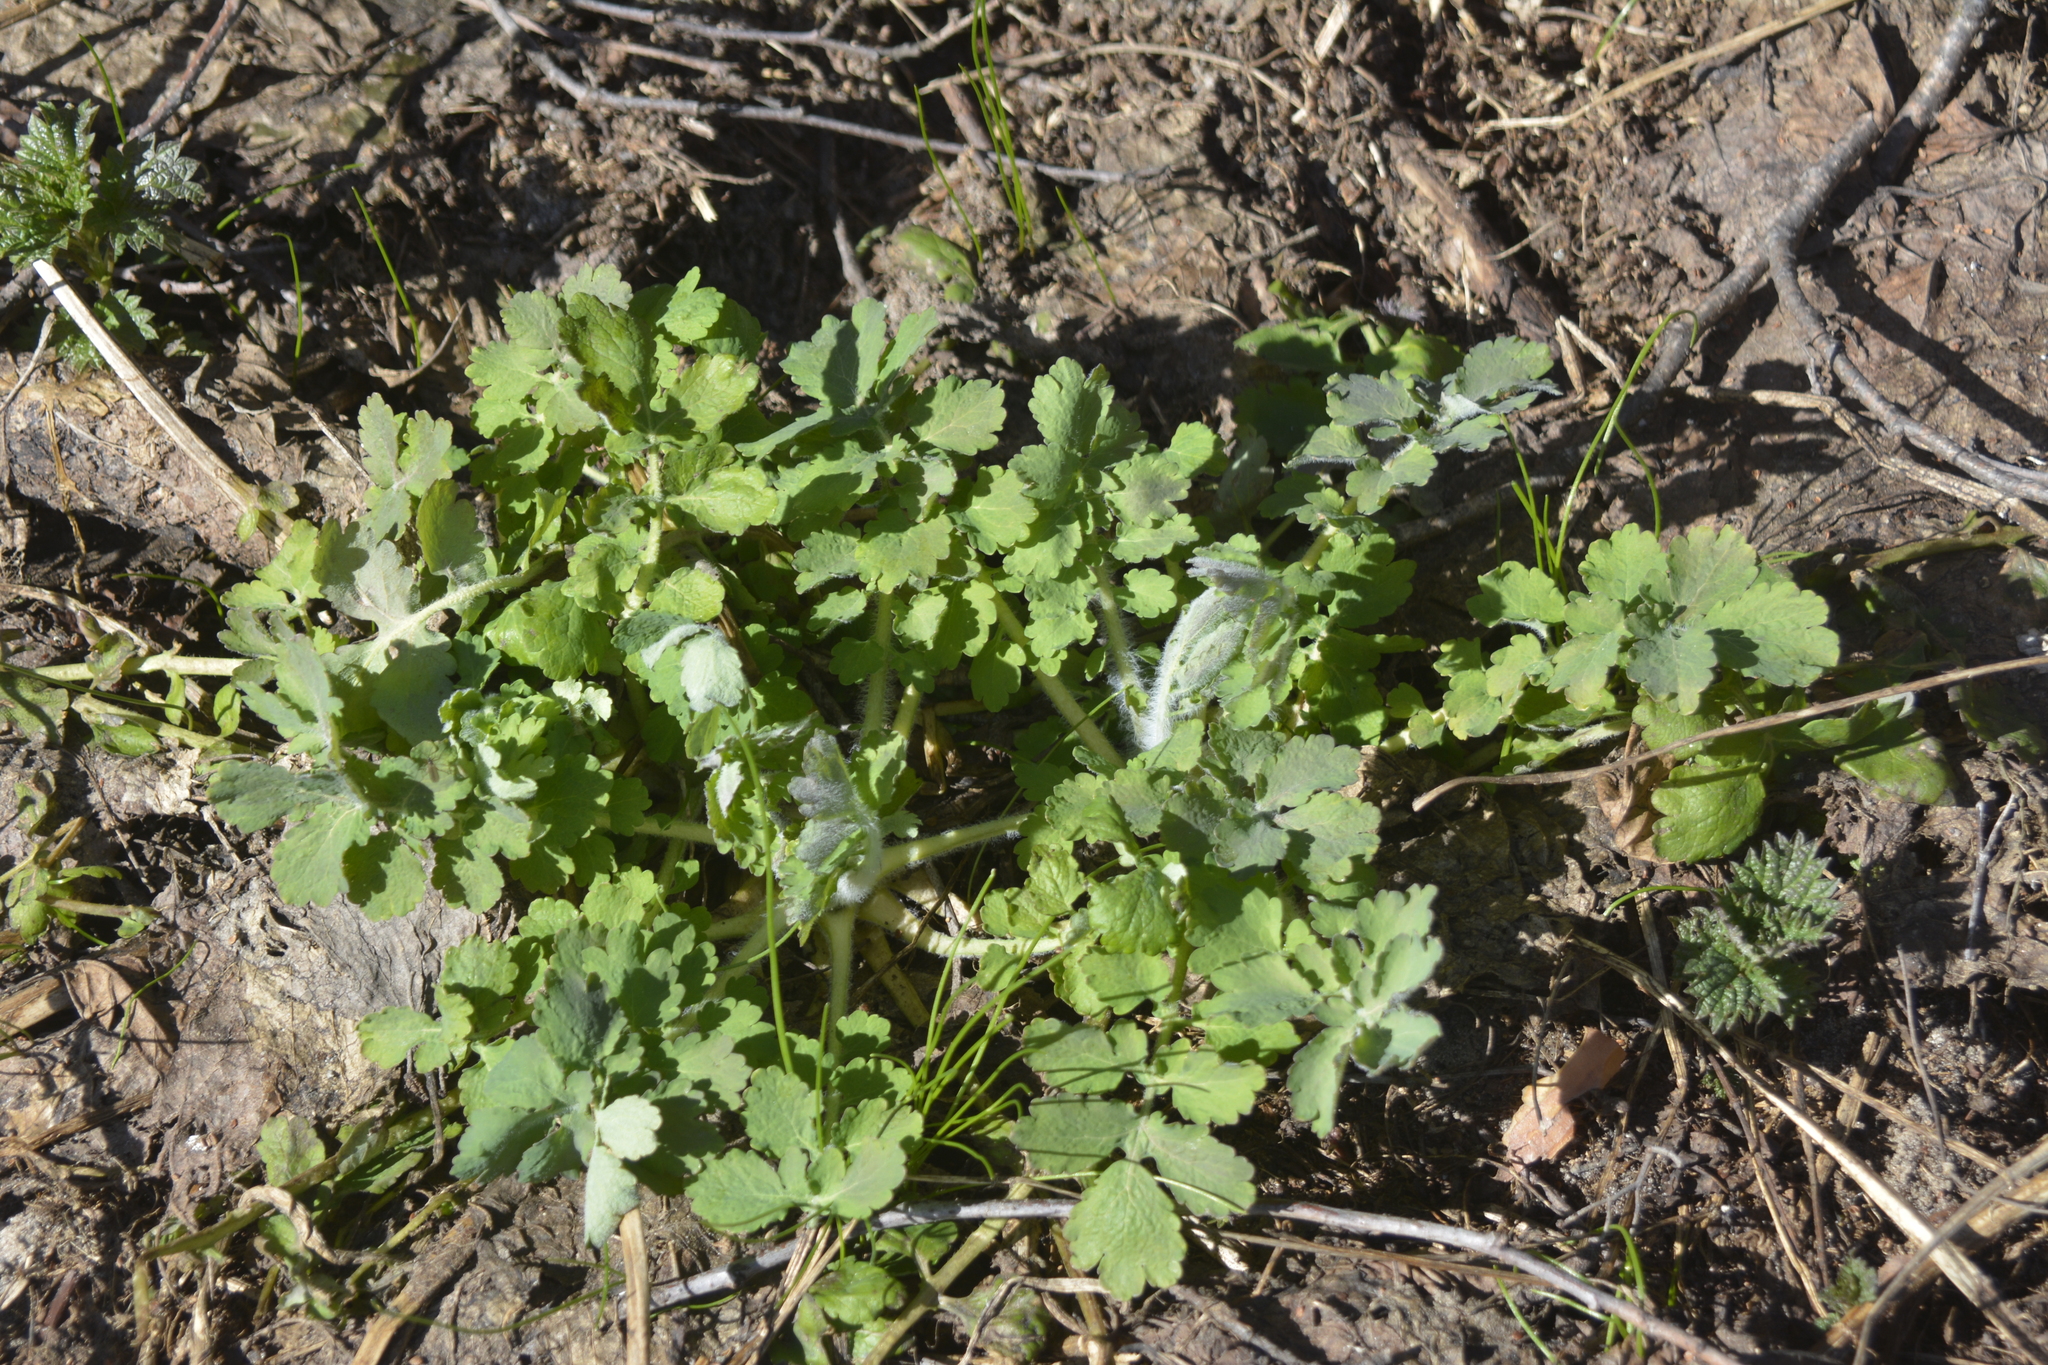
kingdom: Plantae
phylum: Tracheophyta
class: Magnoliopsida
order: Ranunculales
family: Papaveraceae
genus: Chelidonium
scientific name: Chelidonium majus
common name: Greater celandine
